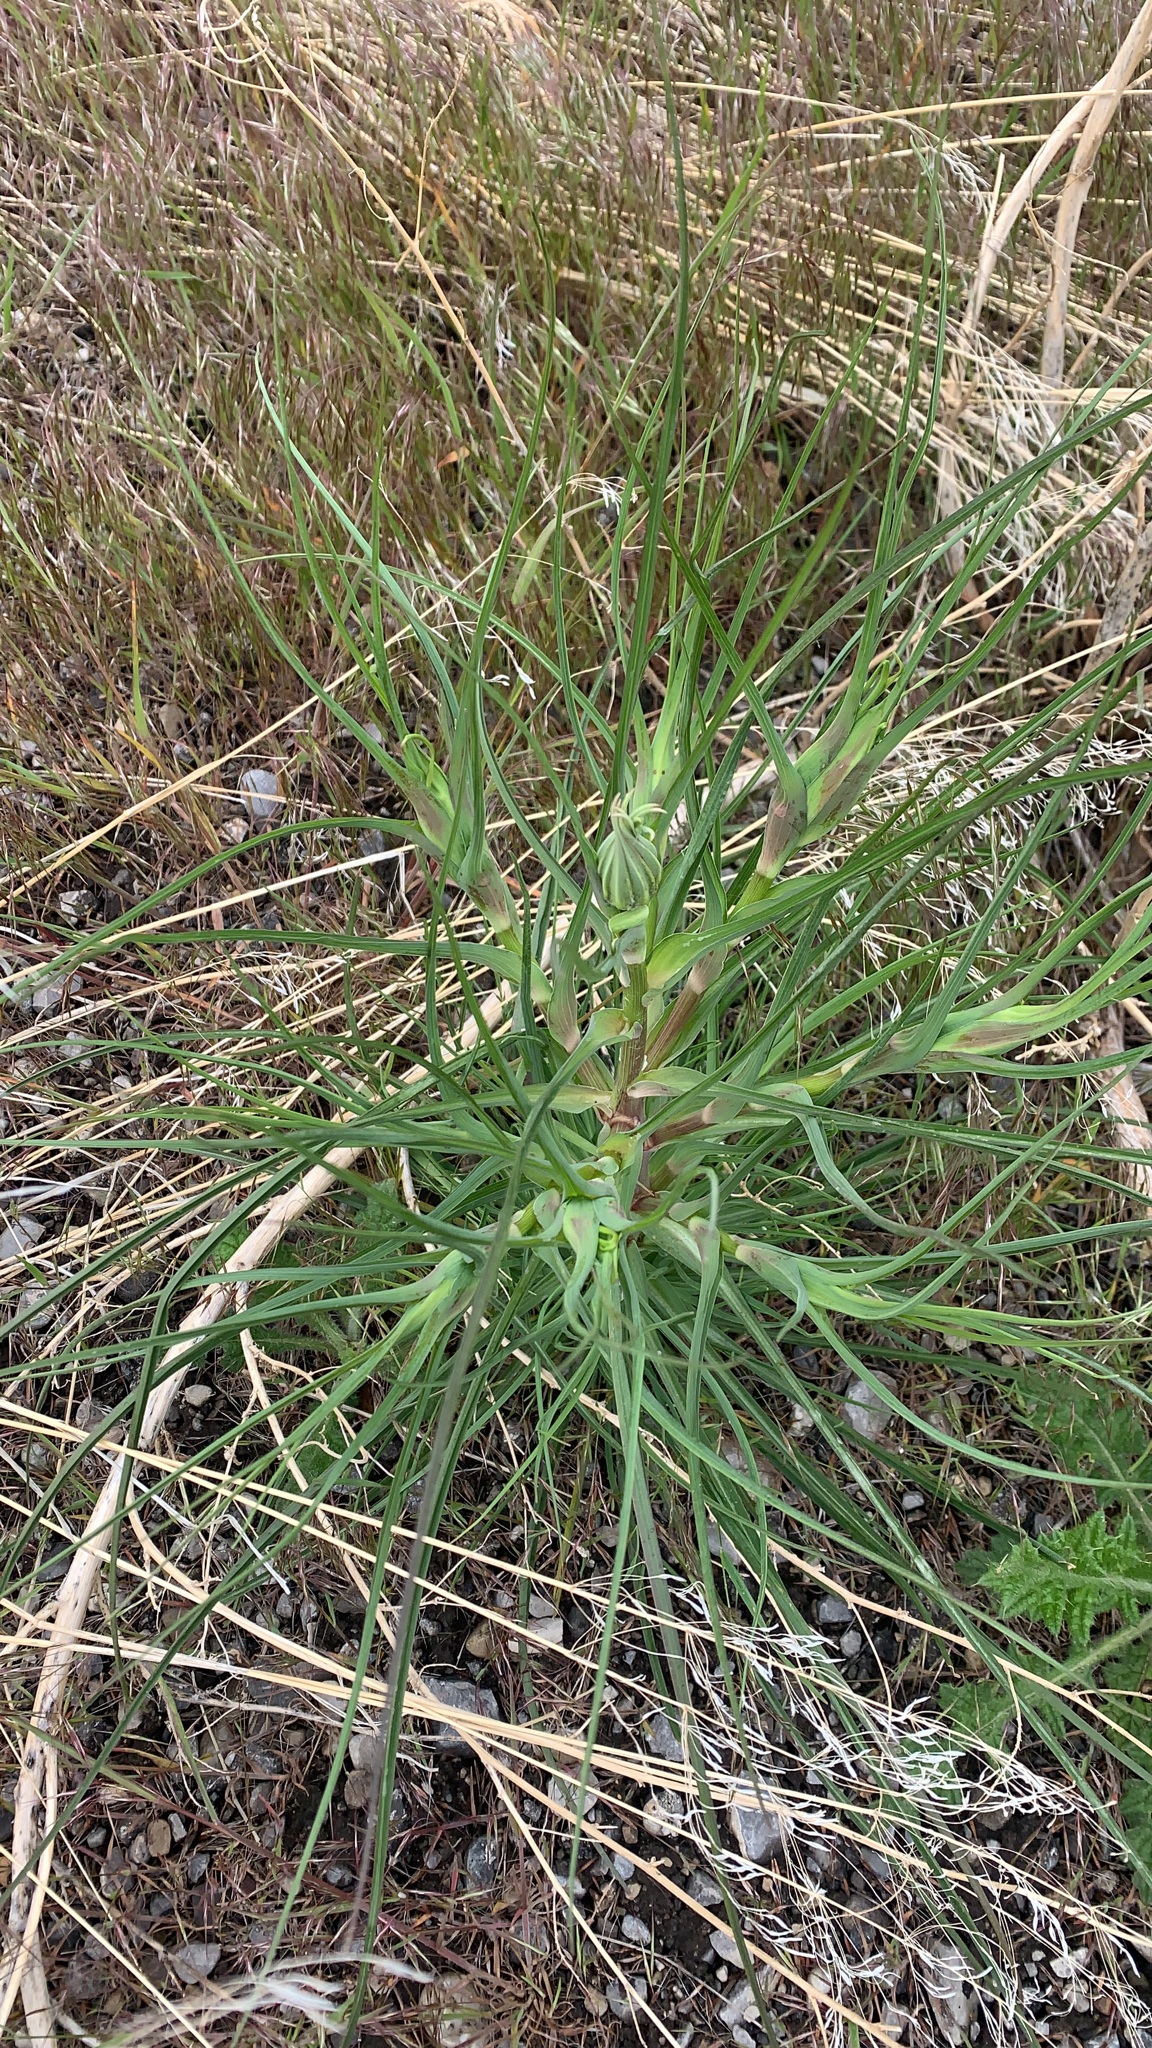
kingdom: Plantae
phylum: Tracheophyta
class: Magnoliopsida
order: Asterales
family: Asteraceae
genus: Tragopogon
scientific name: Tragopogon dubius
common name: Yellow salsify
